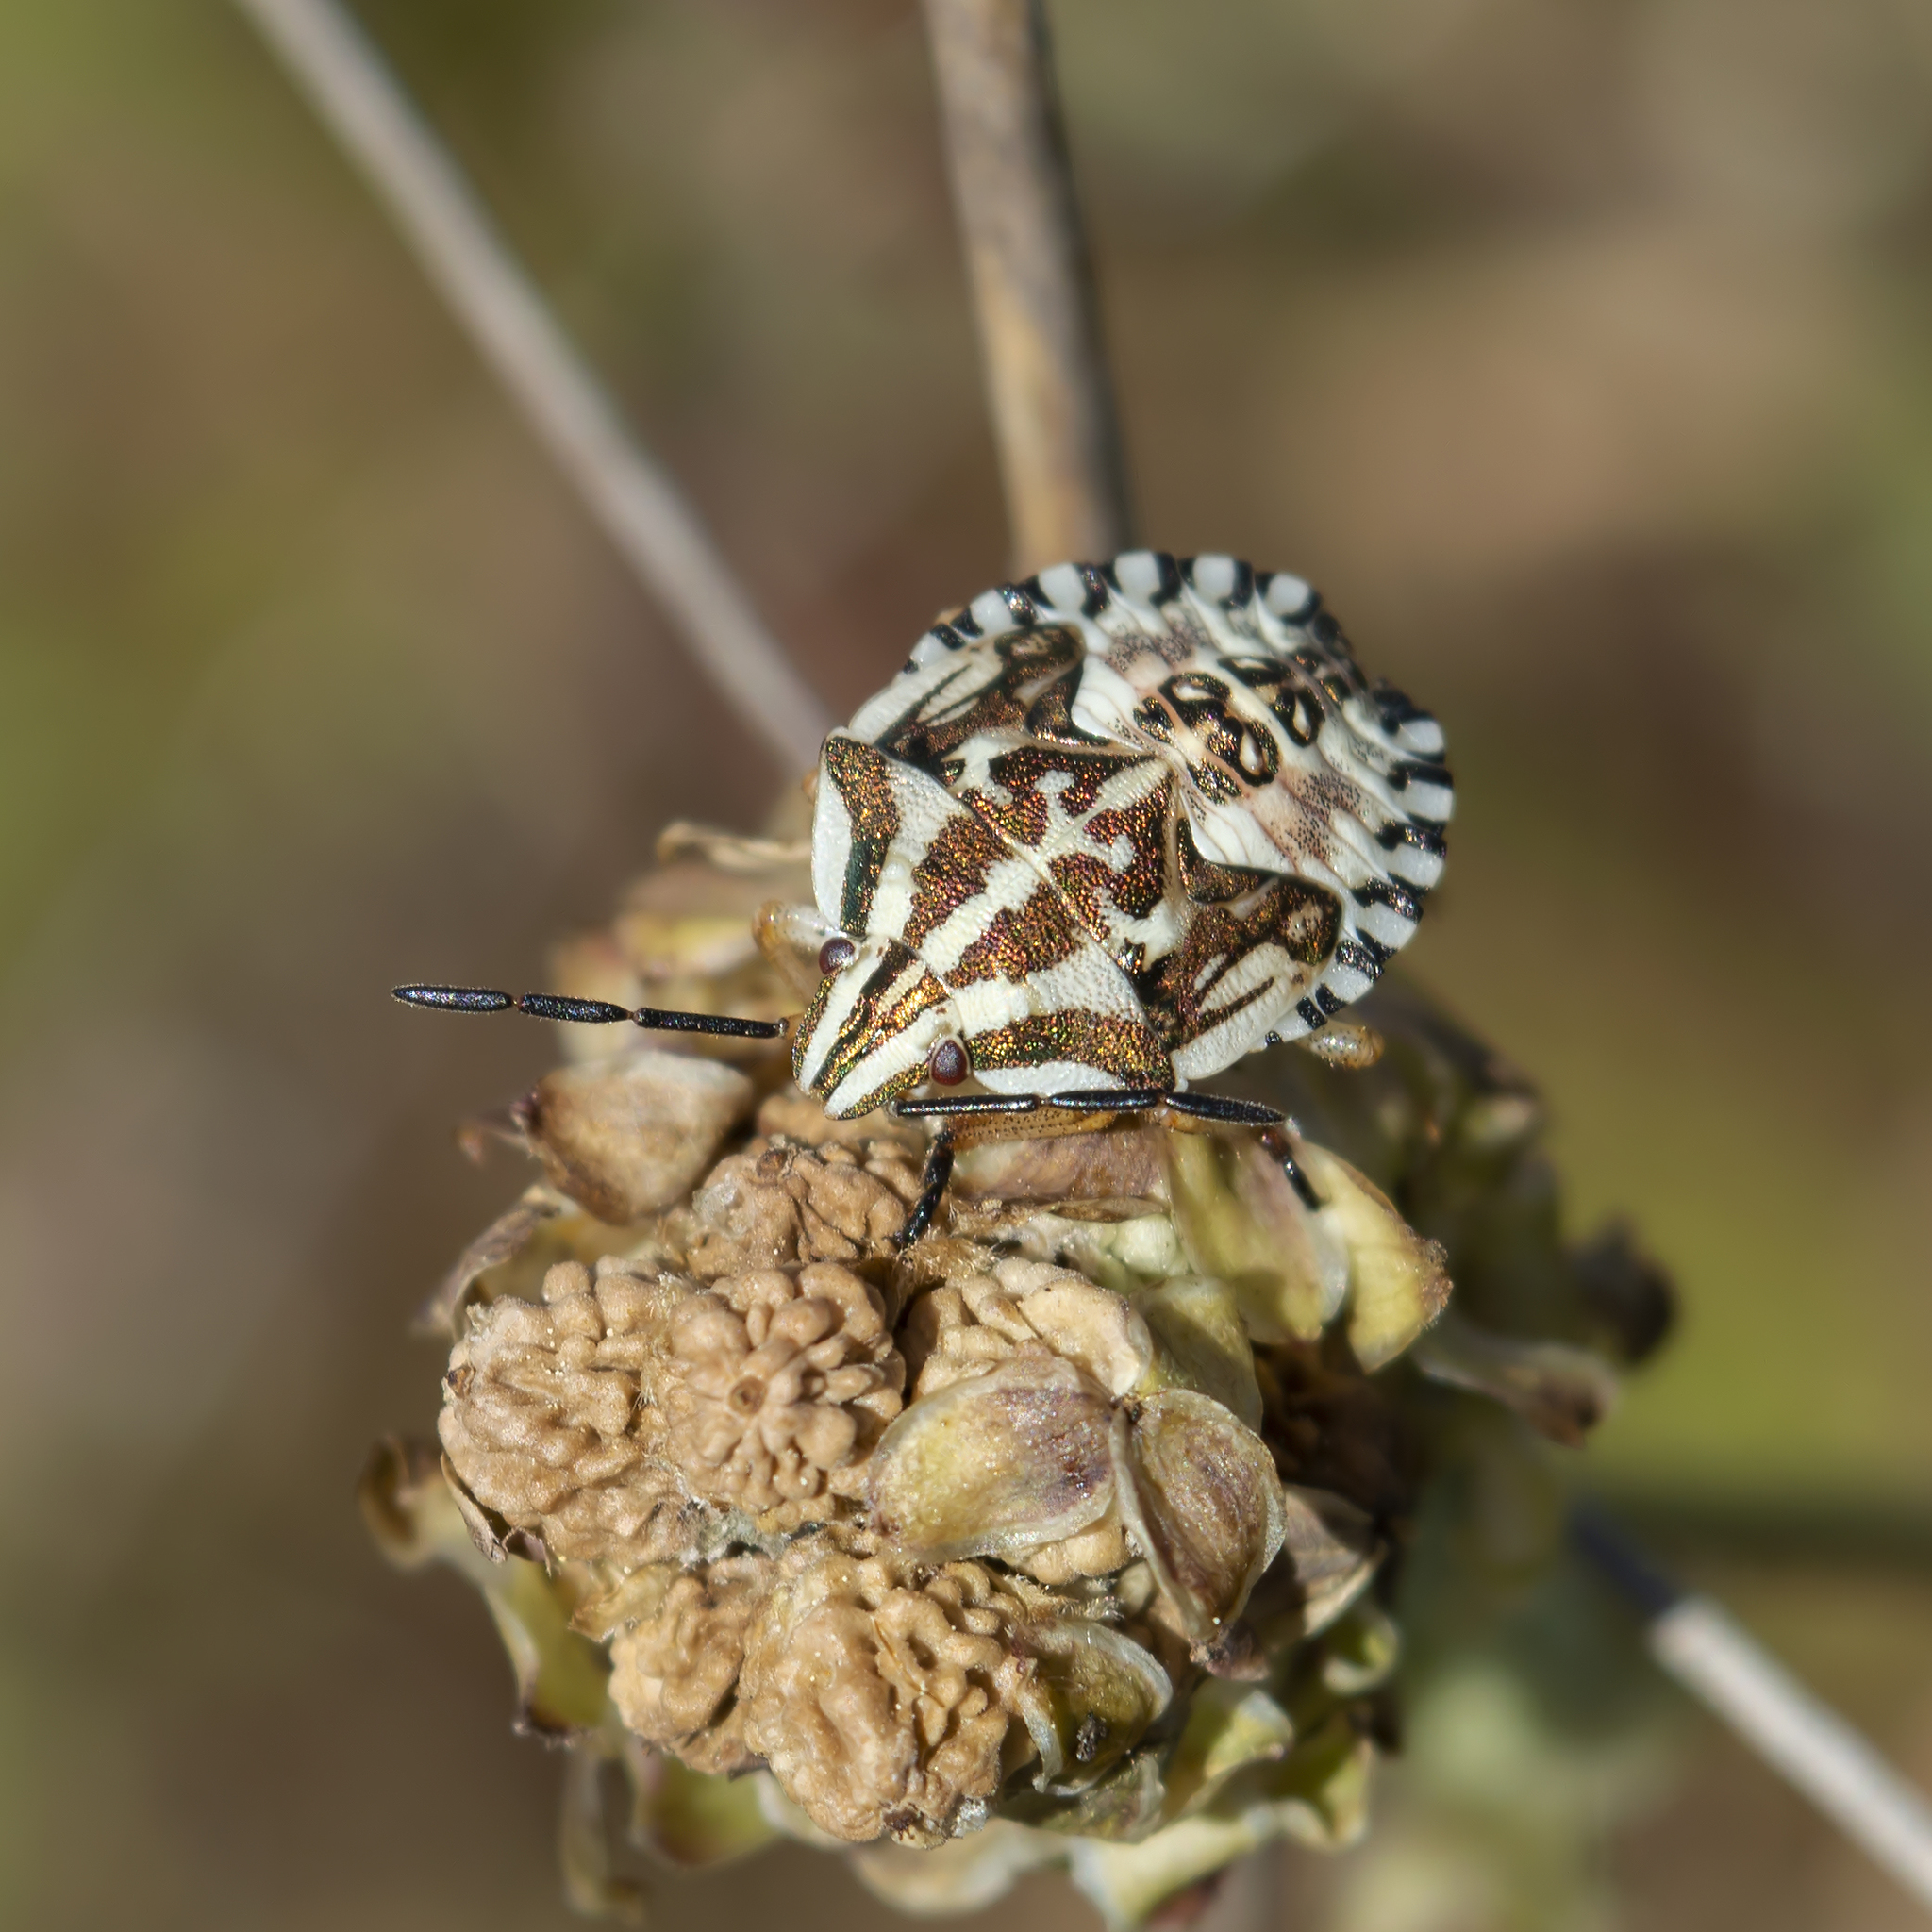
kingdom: Animalia
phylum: Arthropoda
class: Insecta
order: Hemiptera
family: Pentatomidae
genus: Carpocoris
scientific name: Carpocoris mediterraneus
